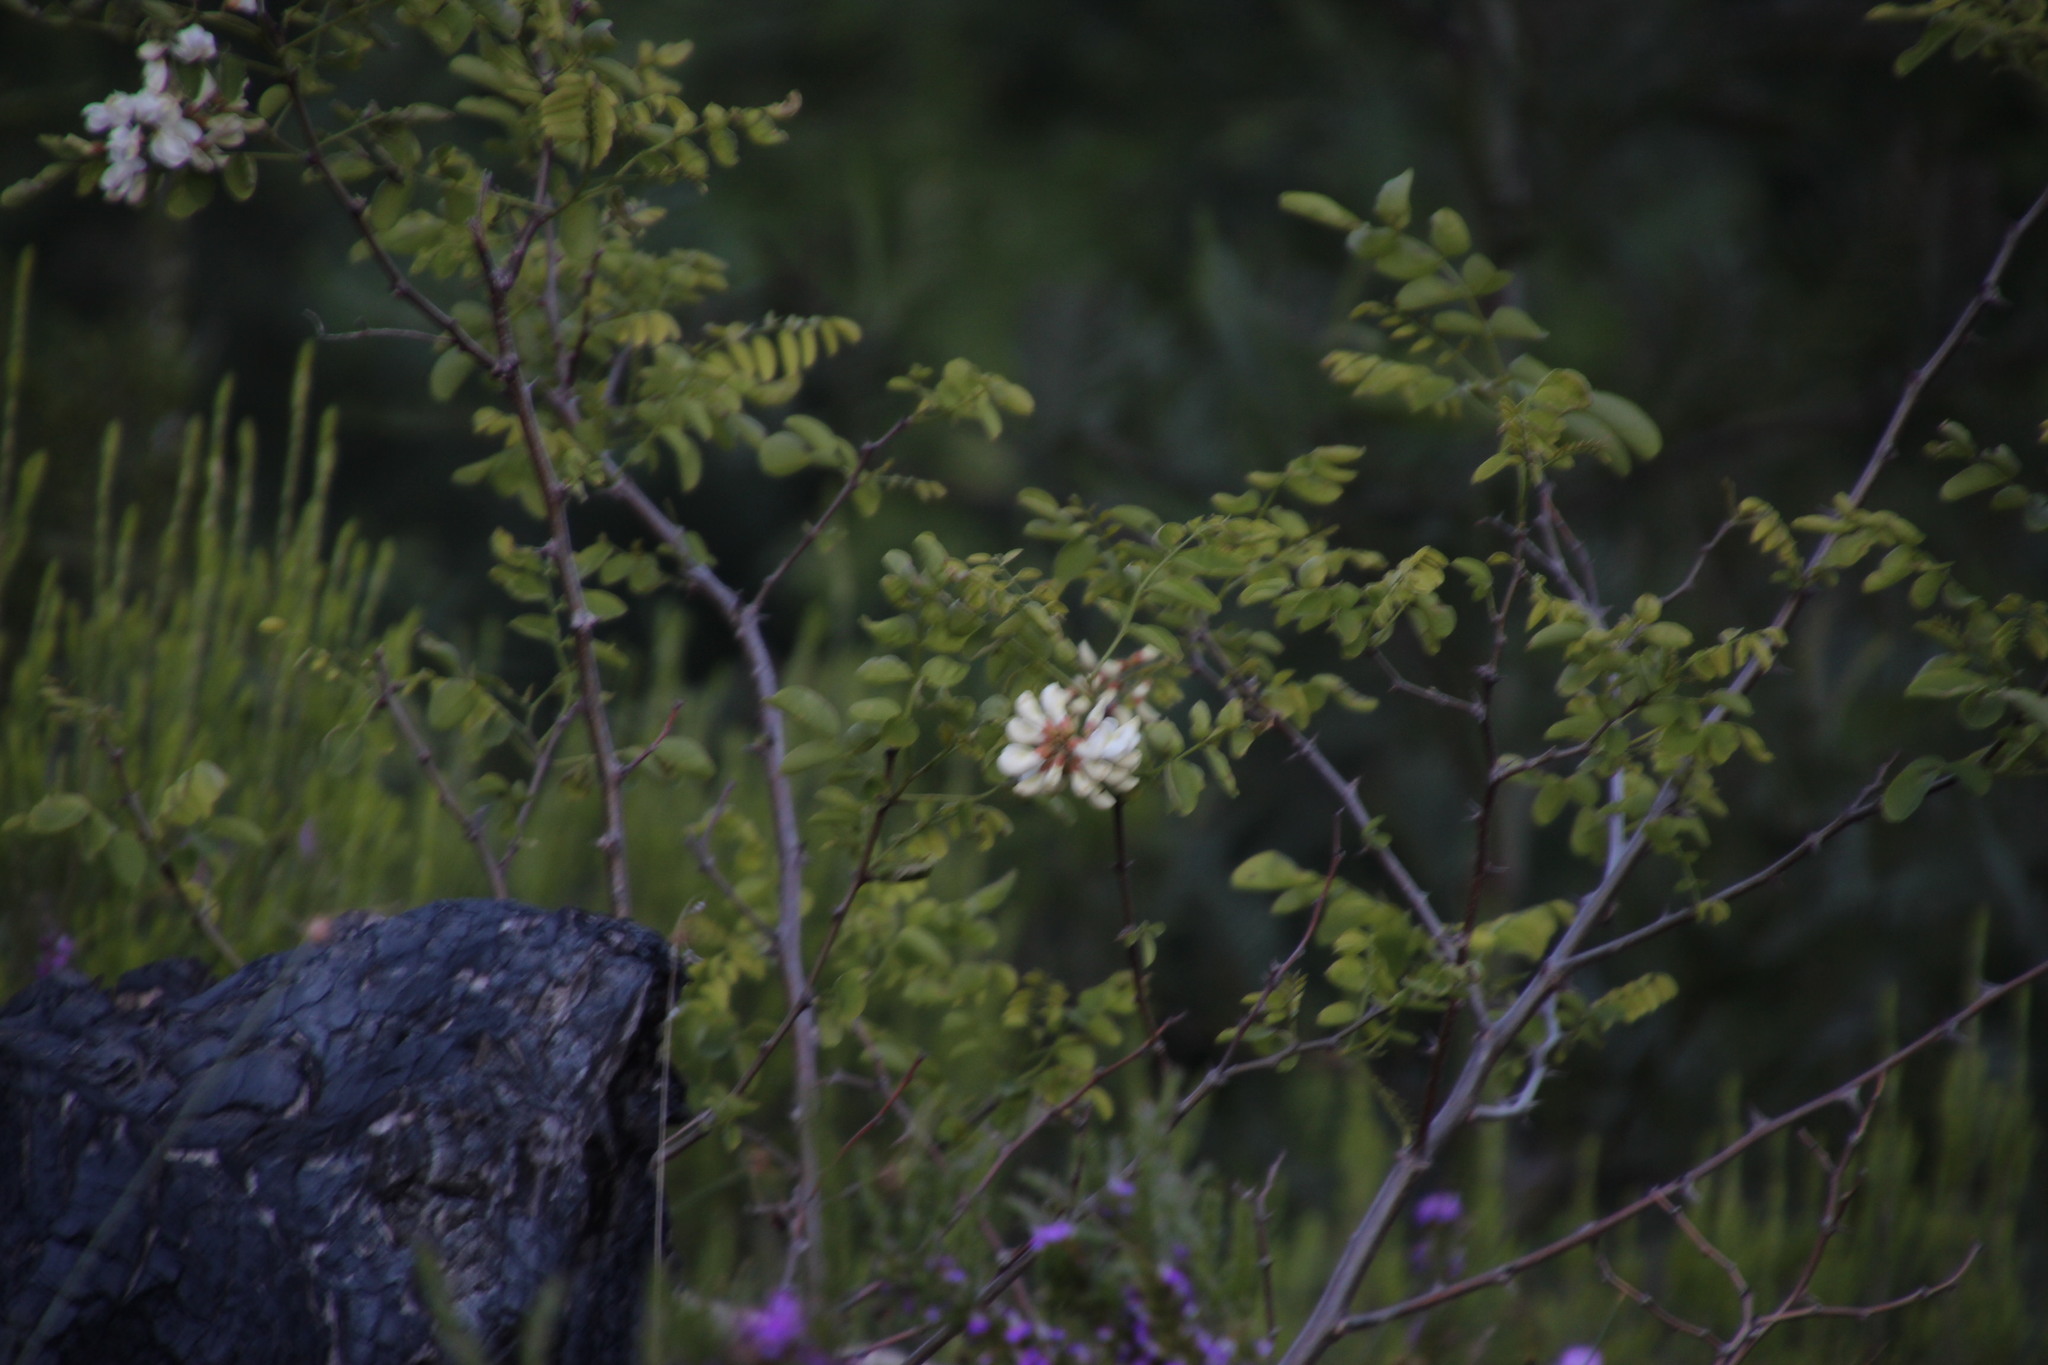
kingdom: Plantae
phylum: Tracheophyta
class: Magnoliopsida
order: Fabales
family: Fabaceae
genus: Robinia
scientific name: Robinia pseudoacacia
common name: Black locust
